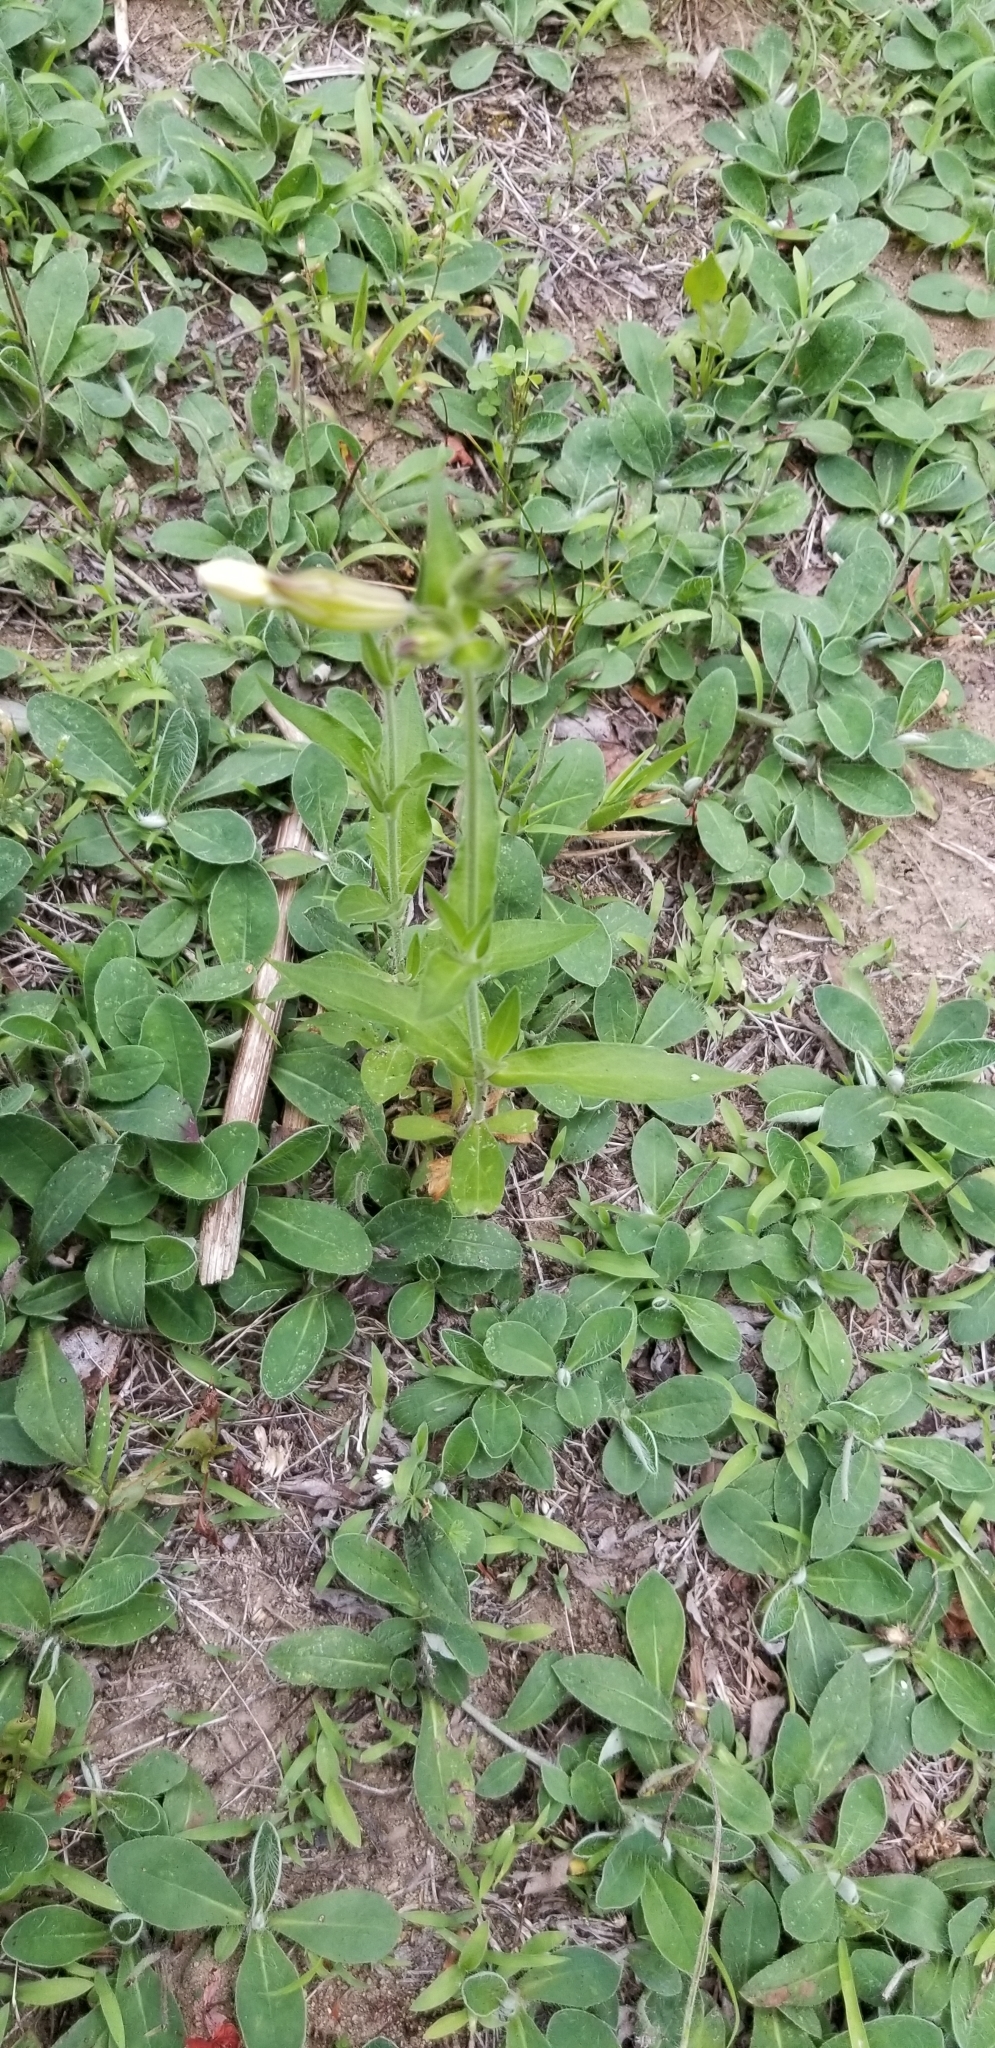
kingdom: Plantae
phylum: Tracheophyta
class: Magnoliopsida
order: Caryophyllales
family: Caryophyllaceae
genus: Silene
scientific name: Silene latifolia
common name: White campion
